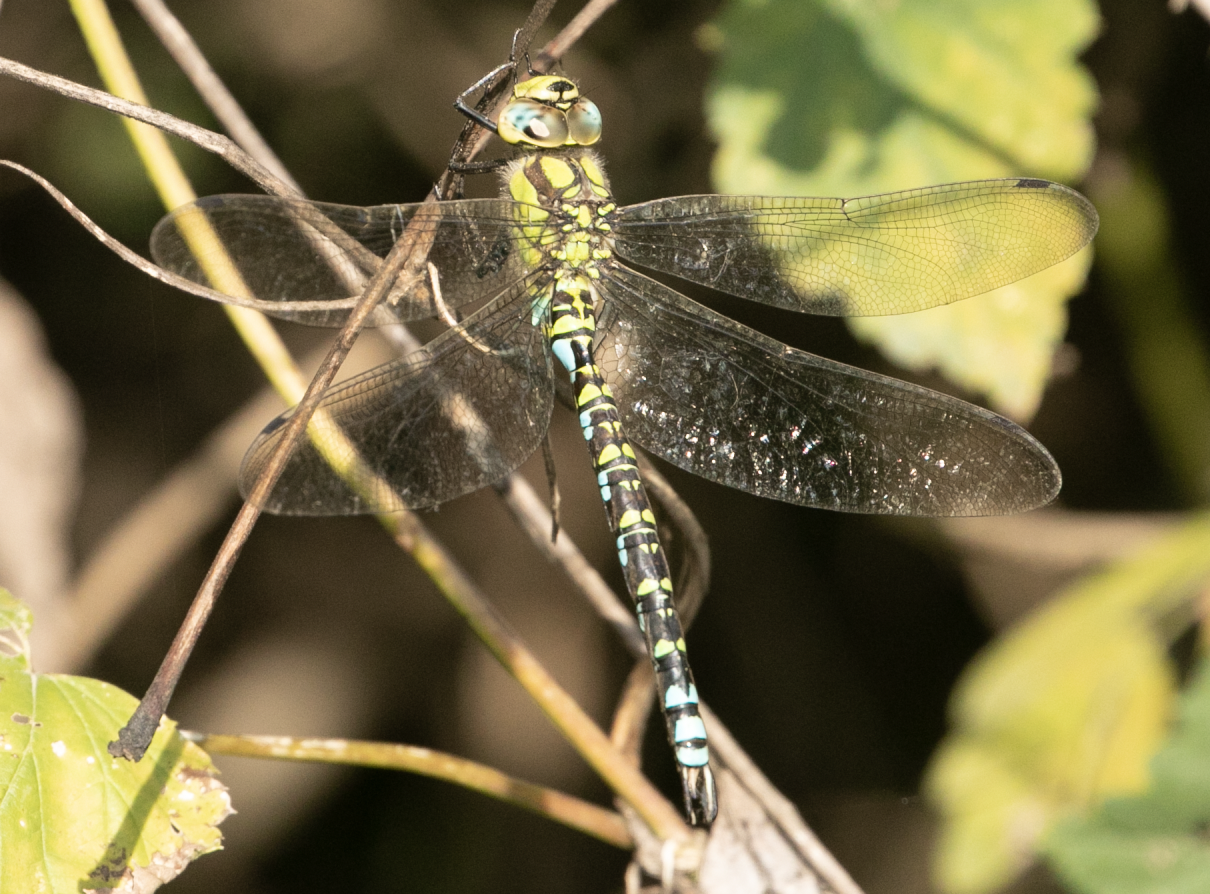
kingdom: Animalia
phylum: Arthropoda
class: Insecta
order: Odonata
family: Aeshnidae
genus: Aeshna
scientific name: Aeshna cyanea
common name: Southern hawker
